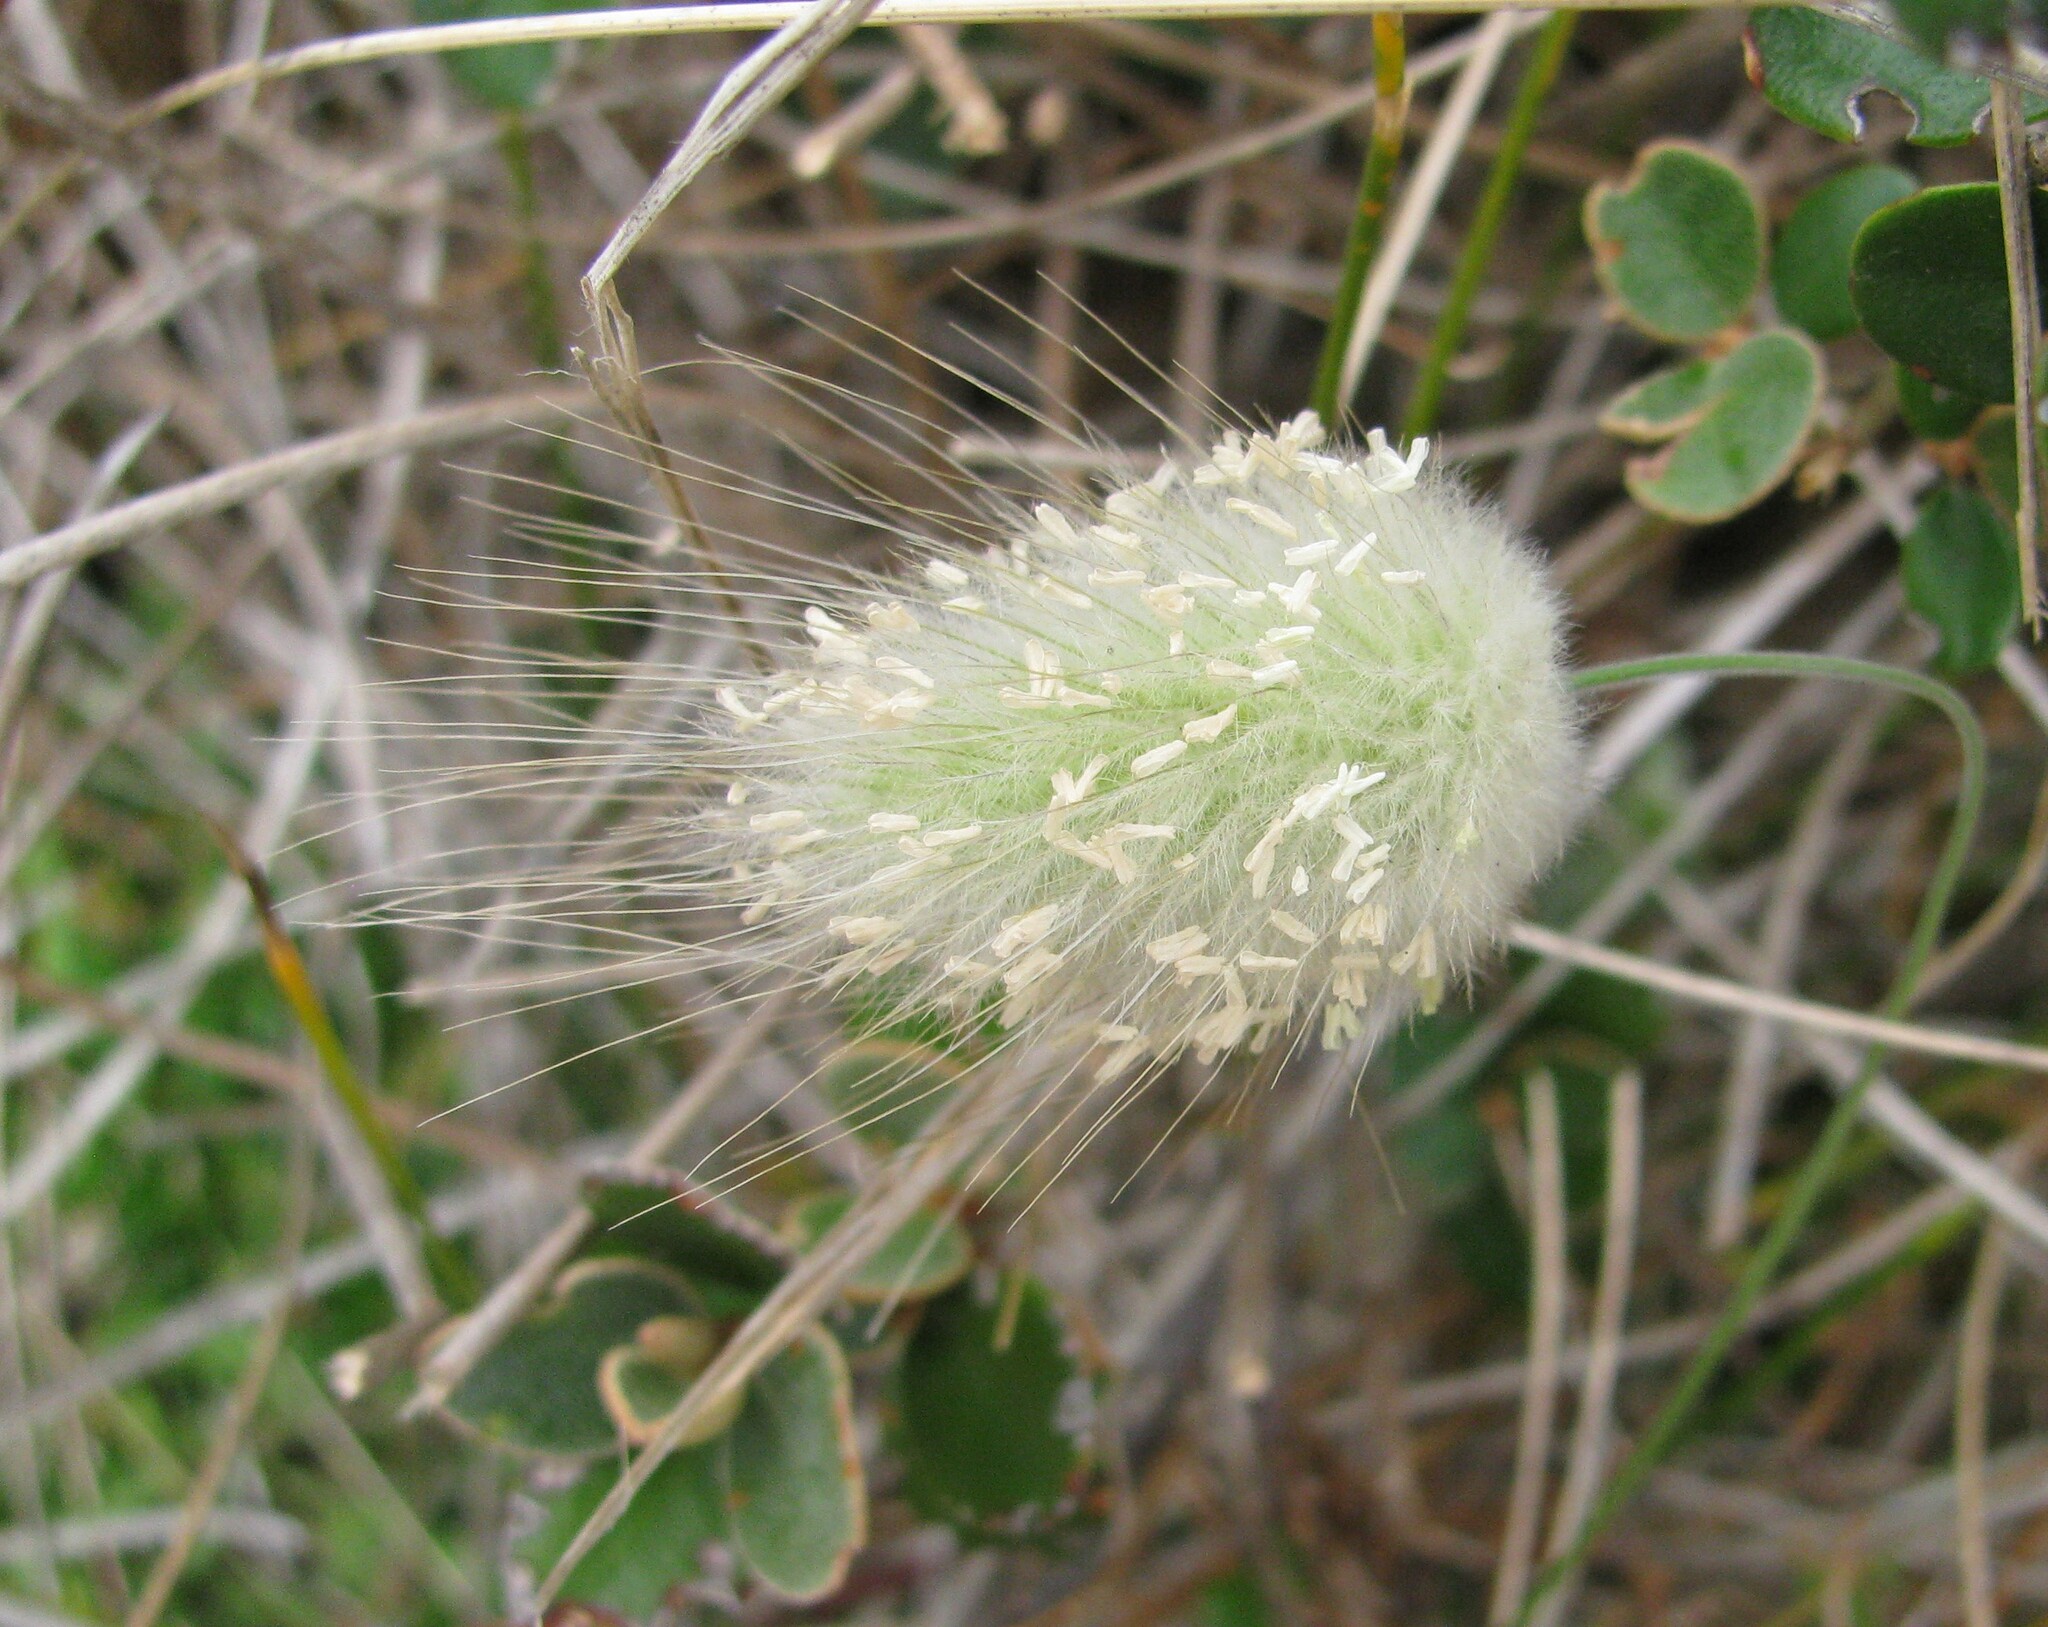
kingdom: Plantae
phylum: Tracheophyta
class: Liliopsida
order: Poales
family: Poaceae
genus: Lagurus
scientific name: Lagurus ovatus
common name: Hare's-tail
